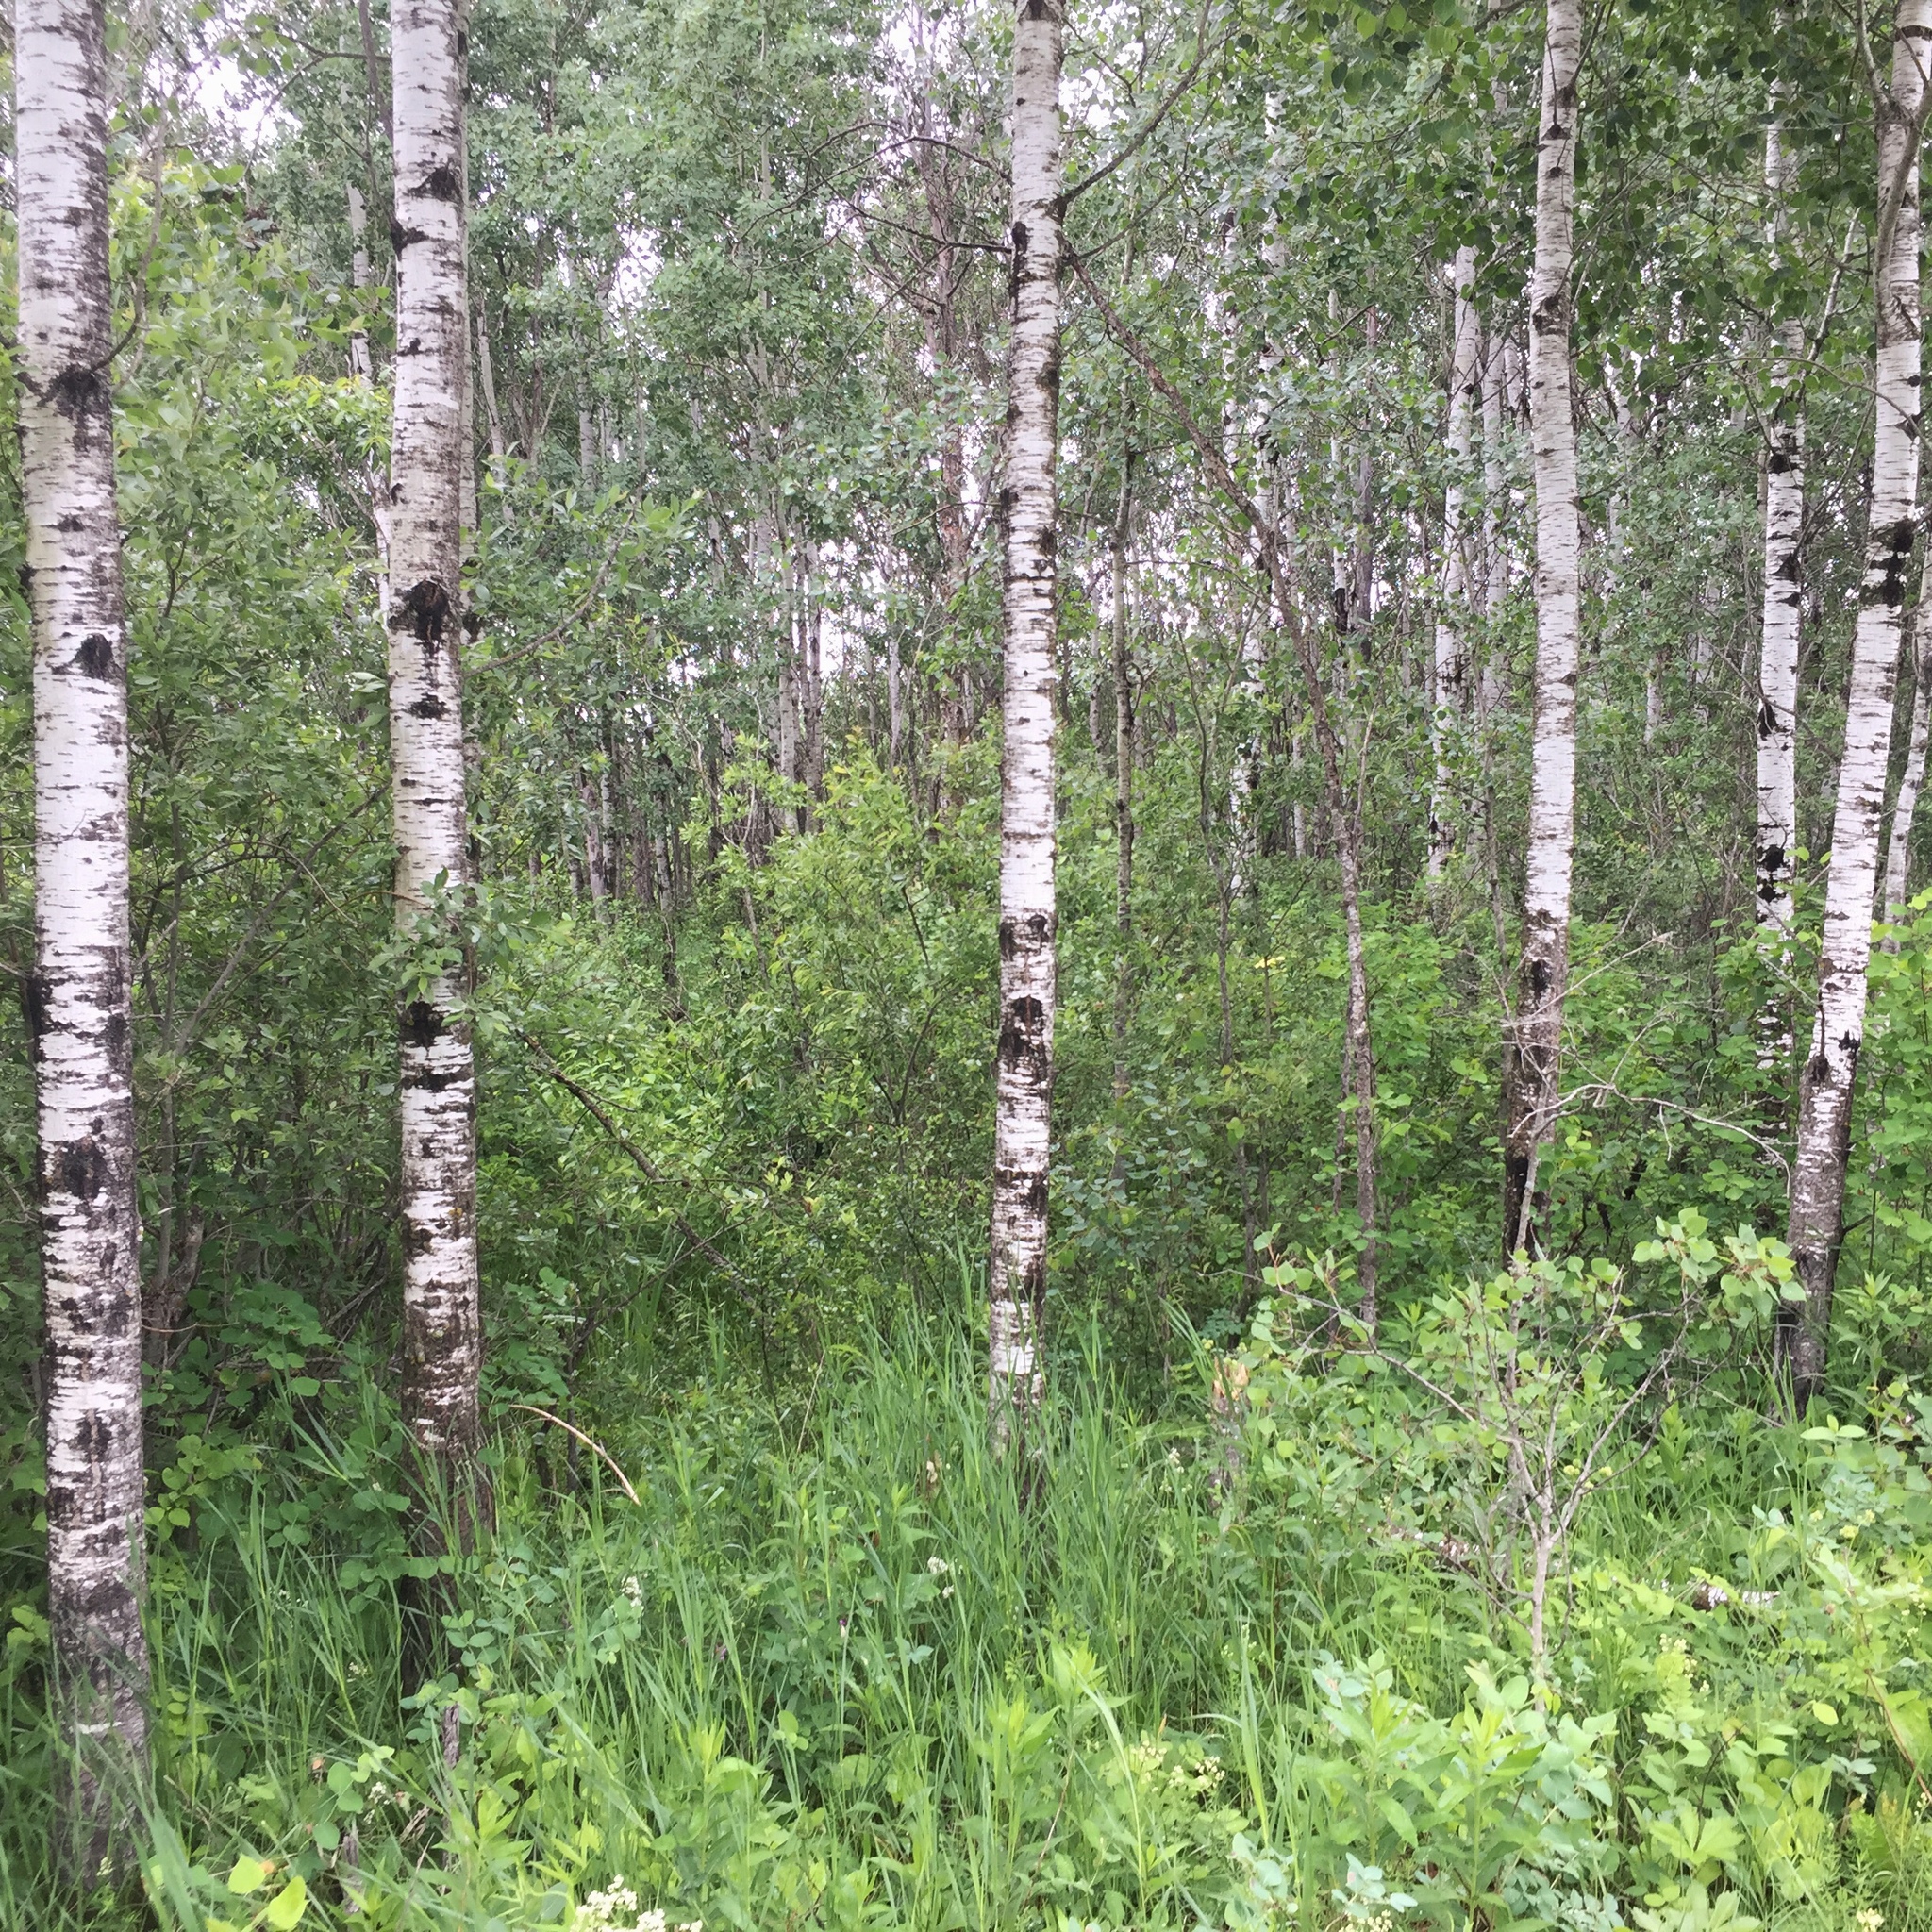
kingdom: Plantae
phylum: Tracheophyta
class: Magnoliopsida
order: Malpighiales
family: Salicaceae
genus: Populus
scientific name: Populus tremuloides
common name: Quaking aspen
